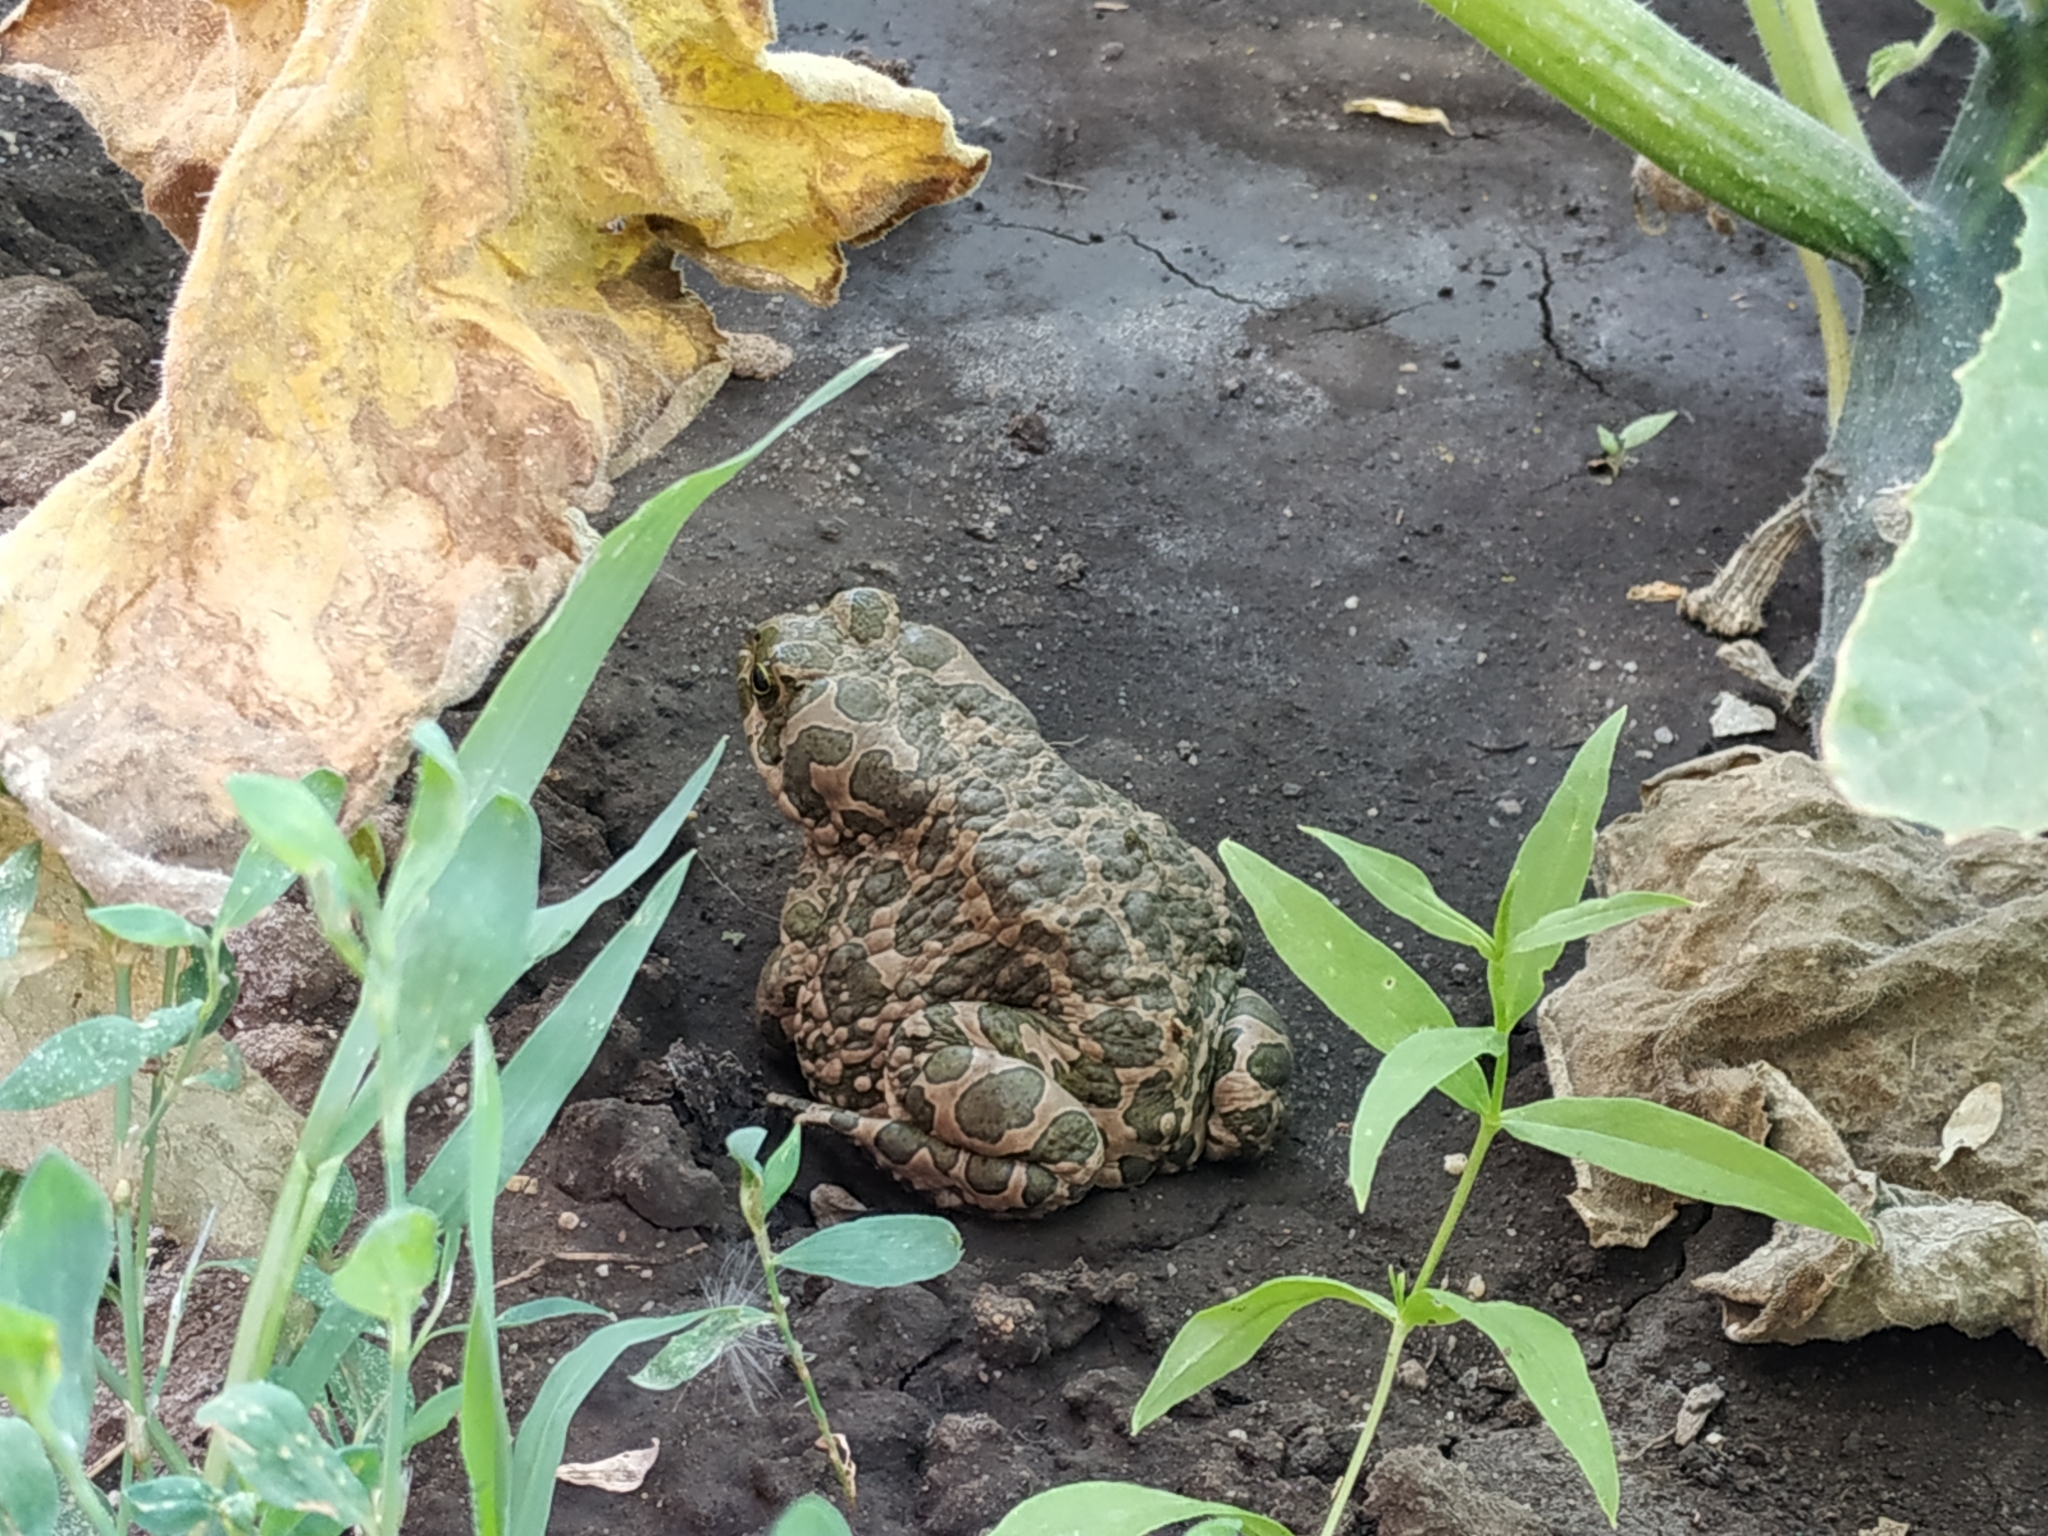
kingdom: Animalia
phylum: Chordata
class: Amphibia
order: Anura
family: Bufonidae
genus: Bufotes
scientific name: Bufotes viridis
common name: European green toad
